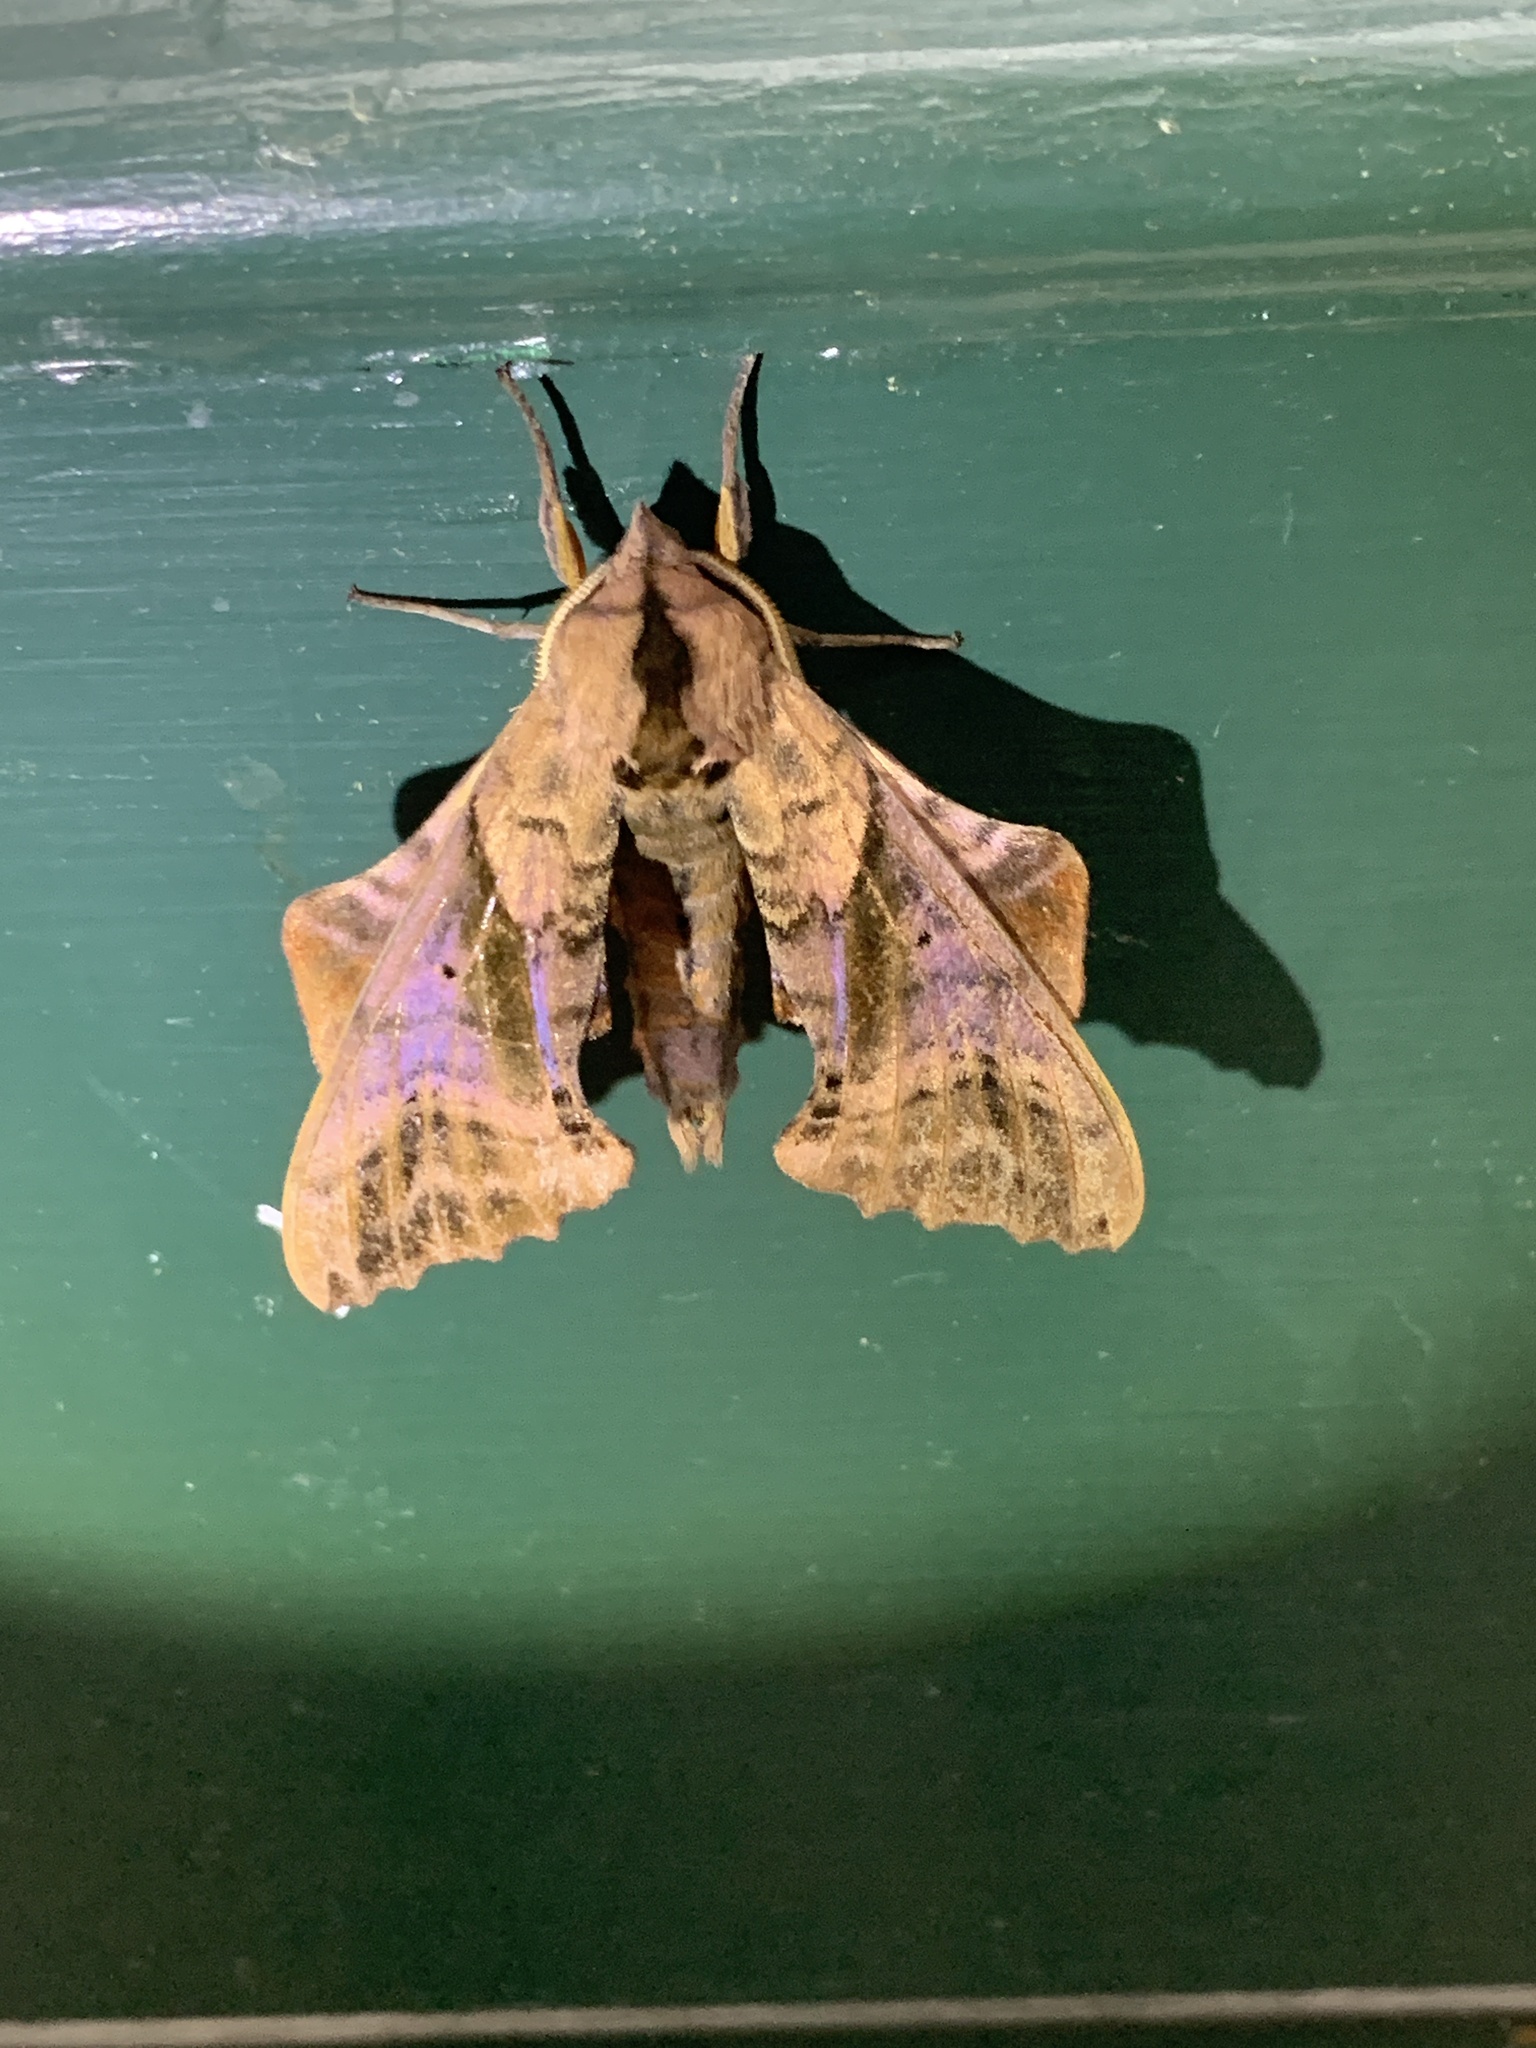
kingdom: Animalia
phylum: Arthropoda
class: Insecta
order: Lepidoptera
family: Sphingidae
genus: Paonias
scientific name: Paonias excaecata
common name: Blind-eyed sphinx
